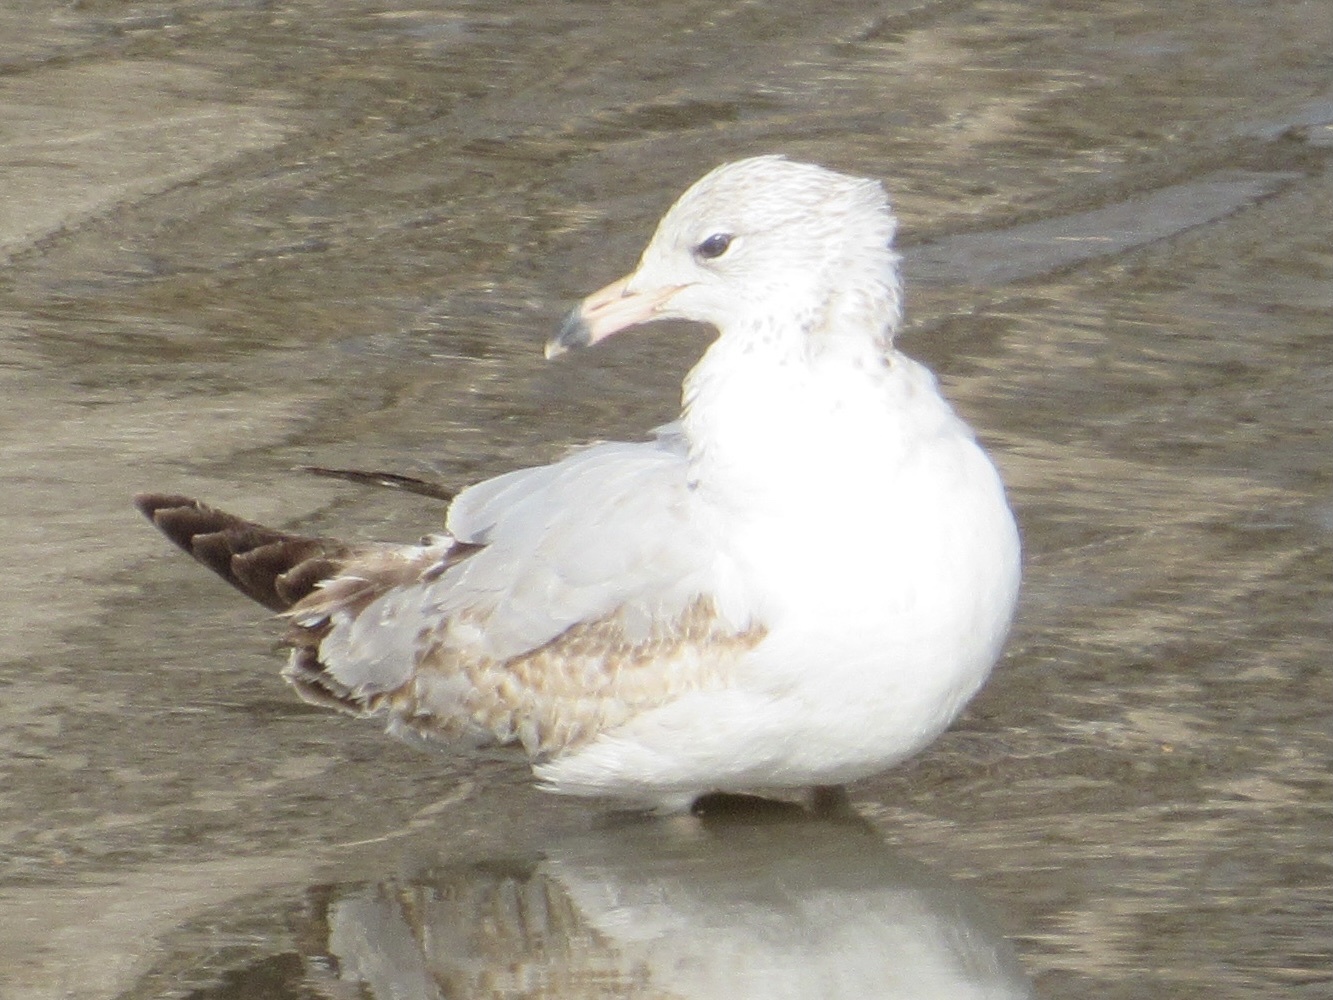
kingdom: Animalia
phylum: Chordata
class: Aves
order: Charadriiformes
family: Laridae
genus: Larus
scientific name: Larus delawarensis
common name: Ring-billed gull
